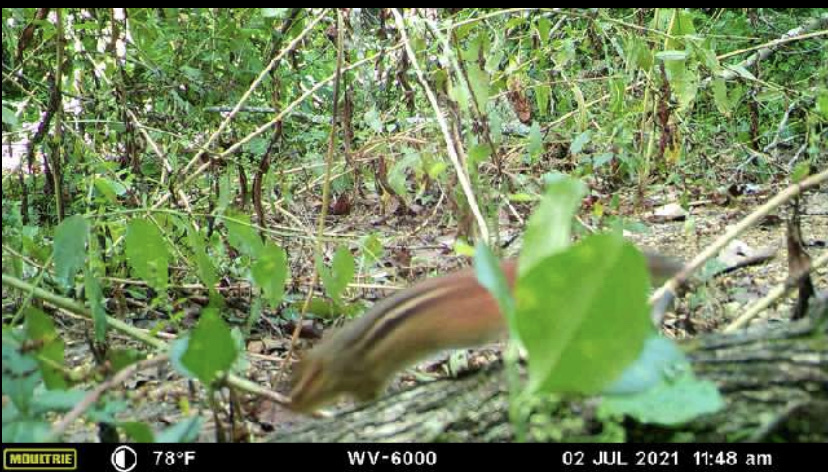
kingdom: Animalia
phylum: Chordata
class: Mammalia
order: Rodentia
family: Sciuridae
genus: Tamias
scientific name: Tamias striatus
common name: Eastern chipmunk
